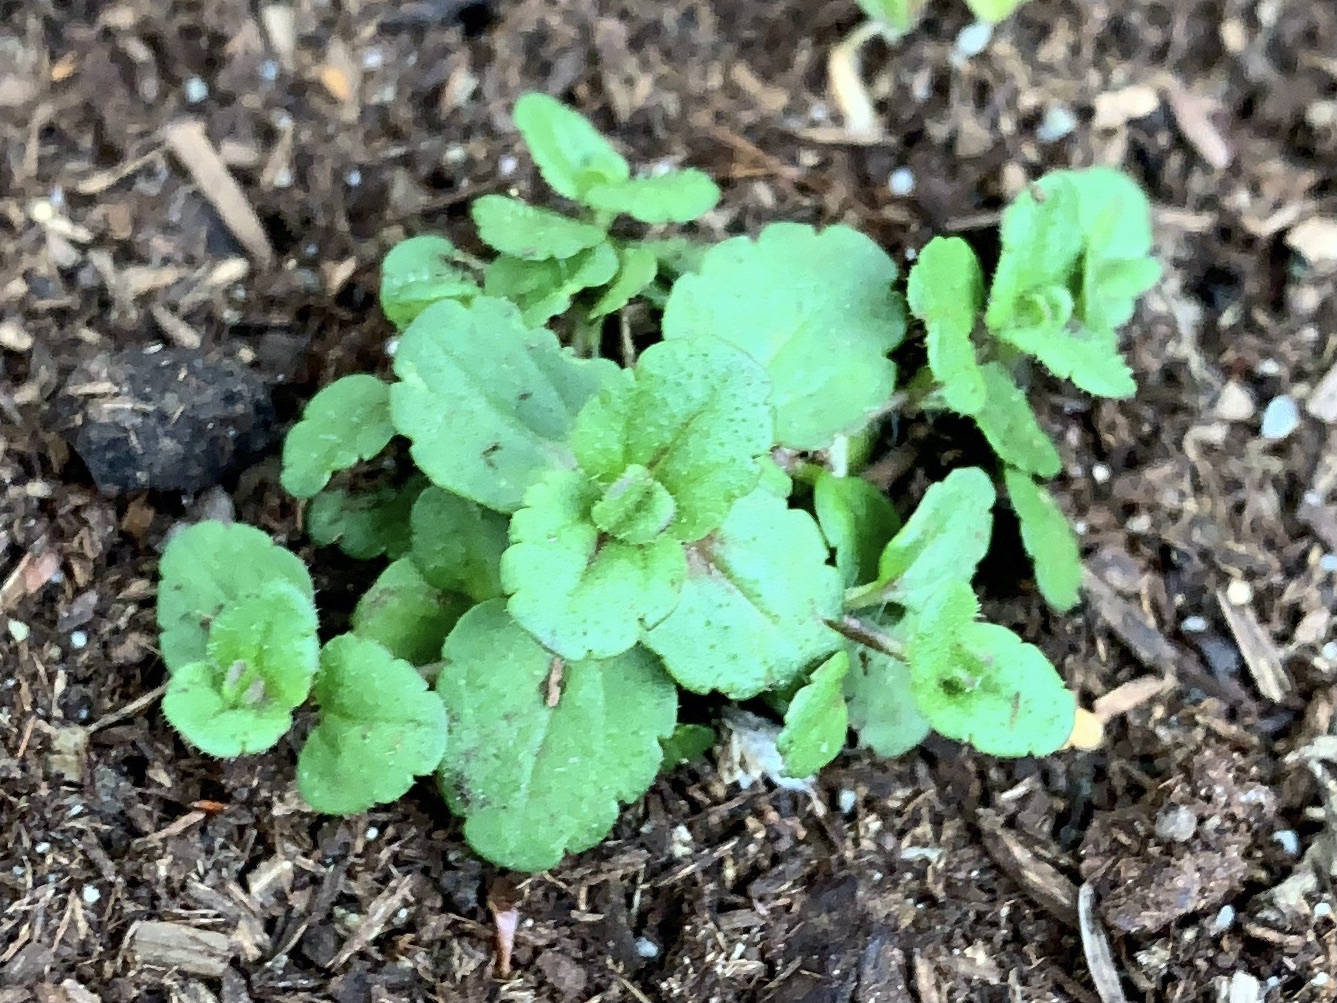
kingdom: Plantae
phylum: Tracheophyta
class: Magnoliopsida
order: Lamiales
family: Plantaginaceae
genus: Veronica
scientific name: Veronica arvensis
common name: Corn speedwell
